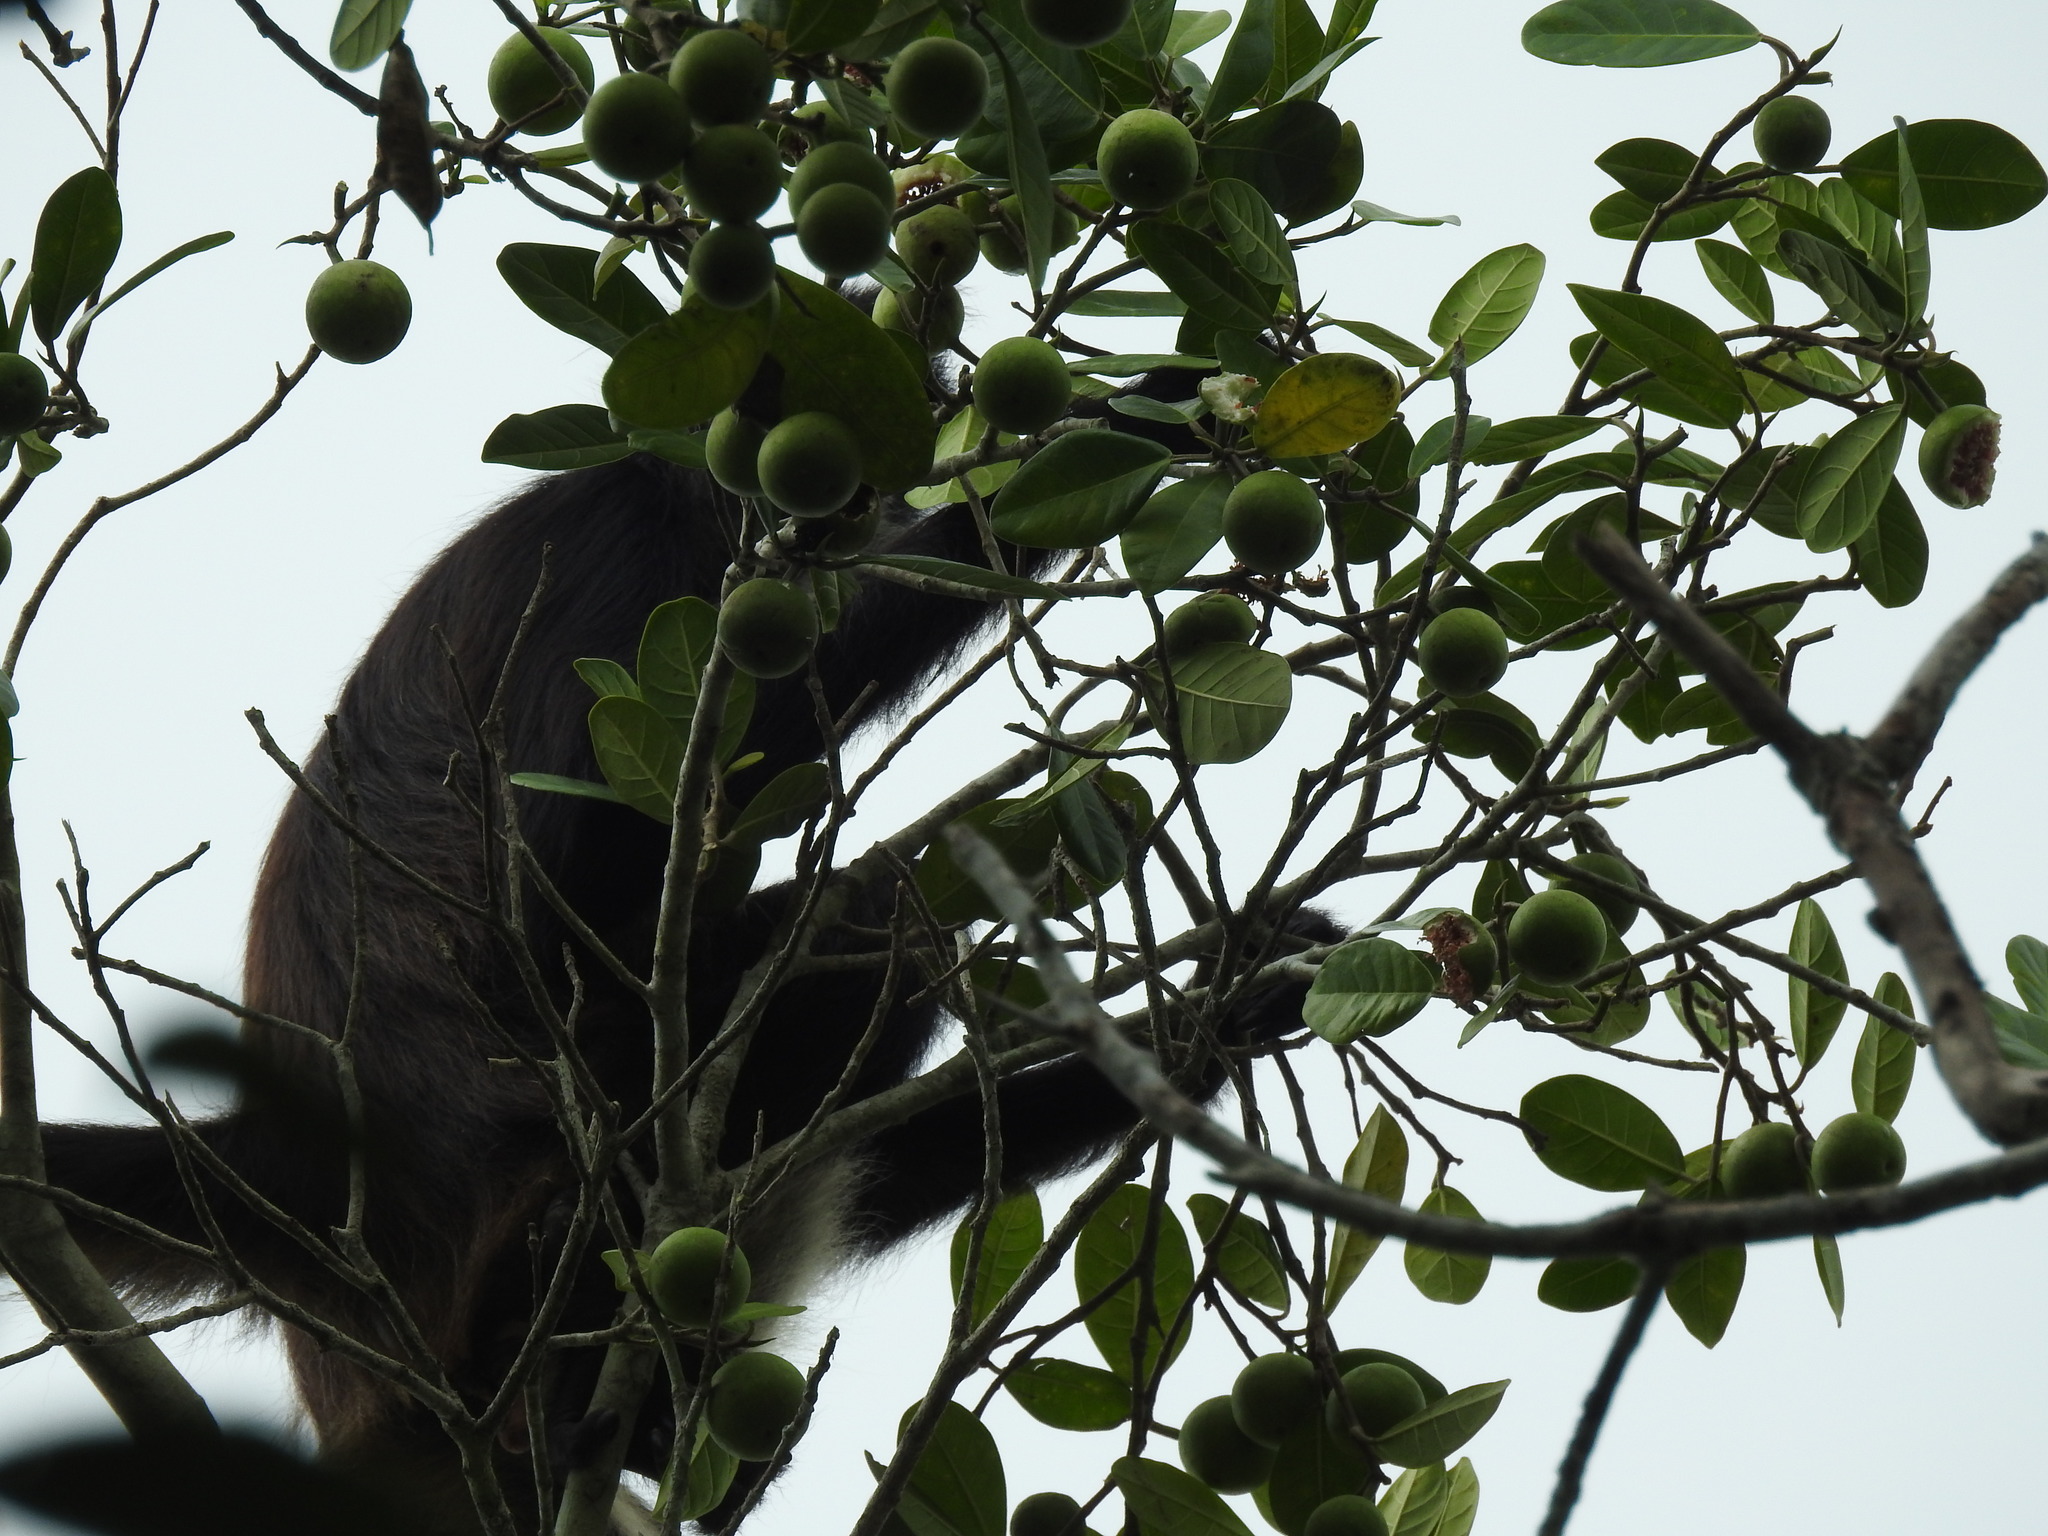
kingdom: Animalia
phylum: Chordata
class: Mammalia
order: Primates
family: Atelidae
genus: Ateles
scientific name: Ateles geoffroyi
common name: Black-handed spider monkey
